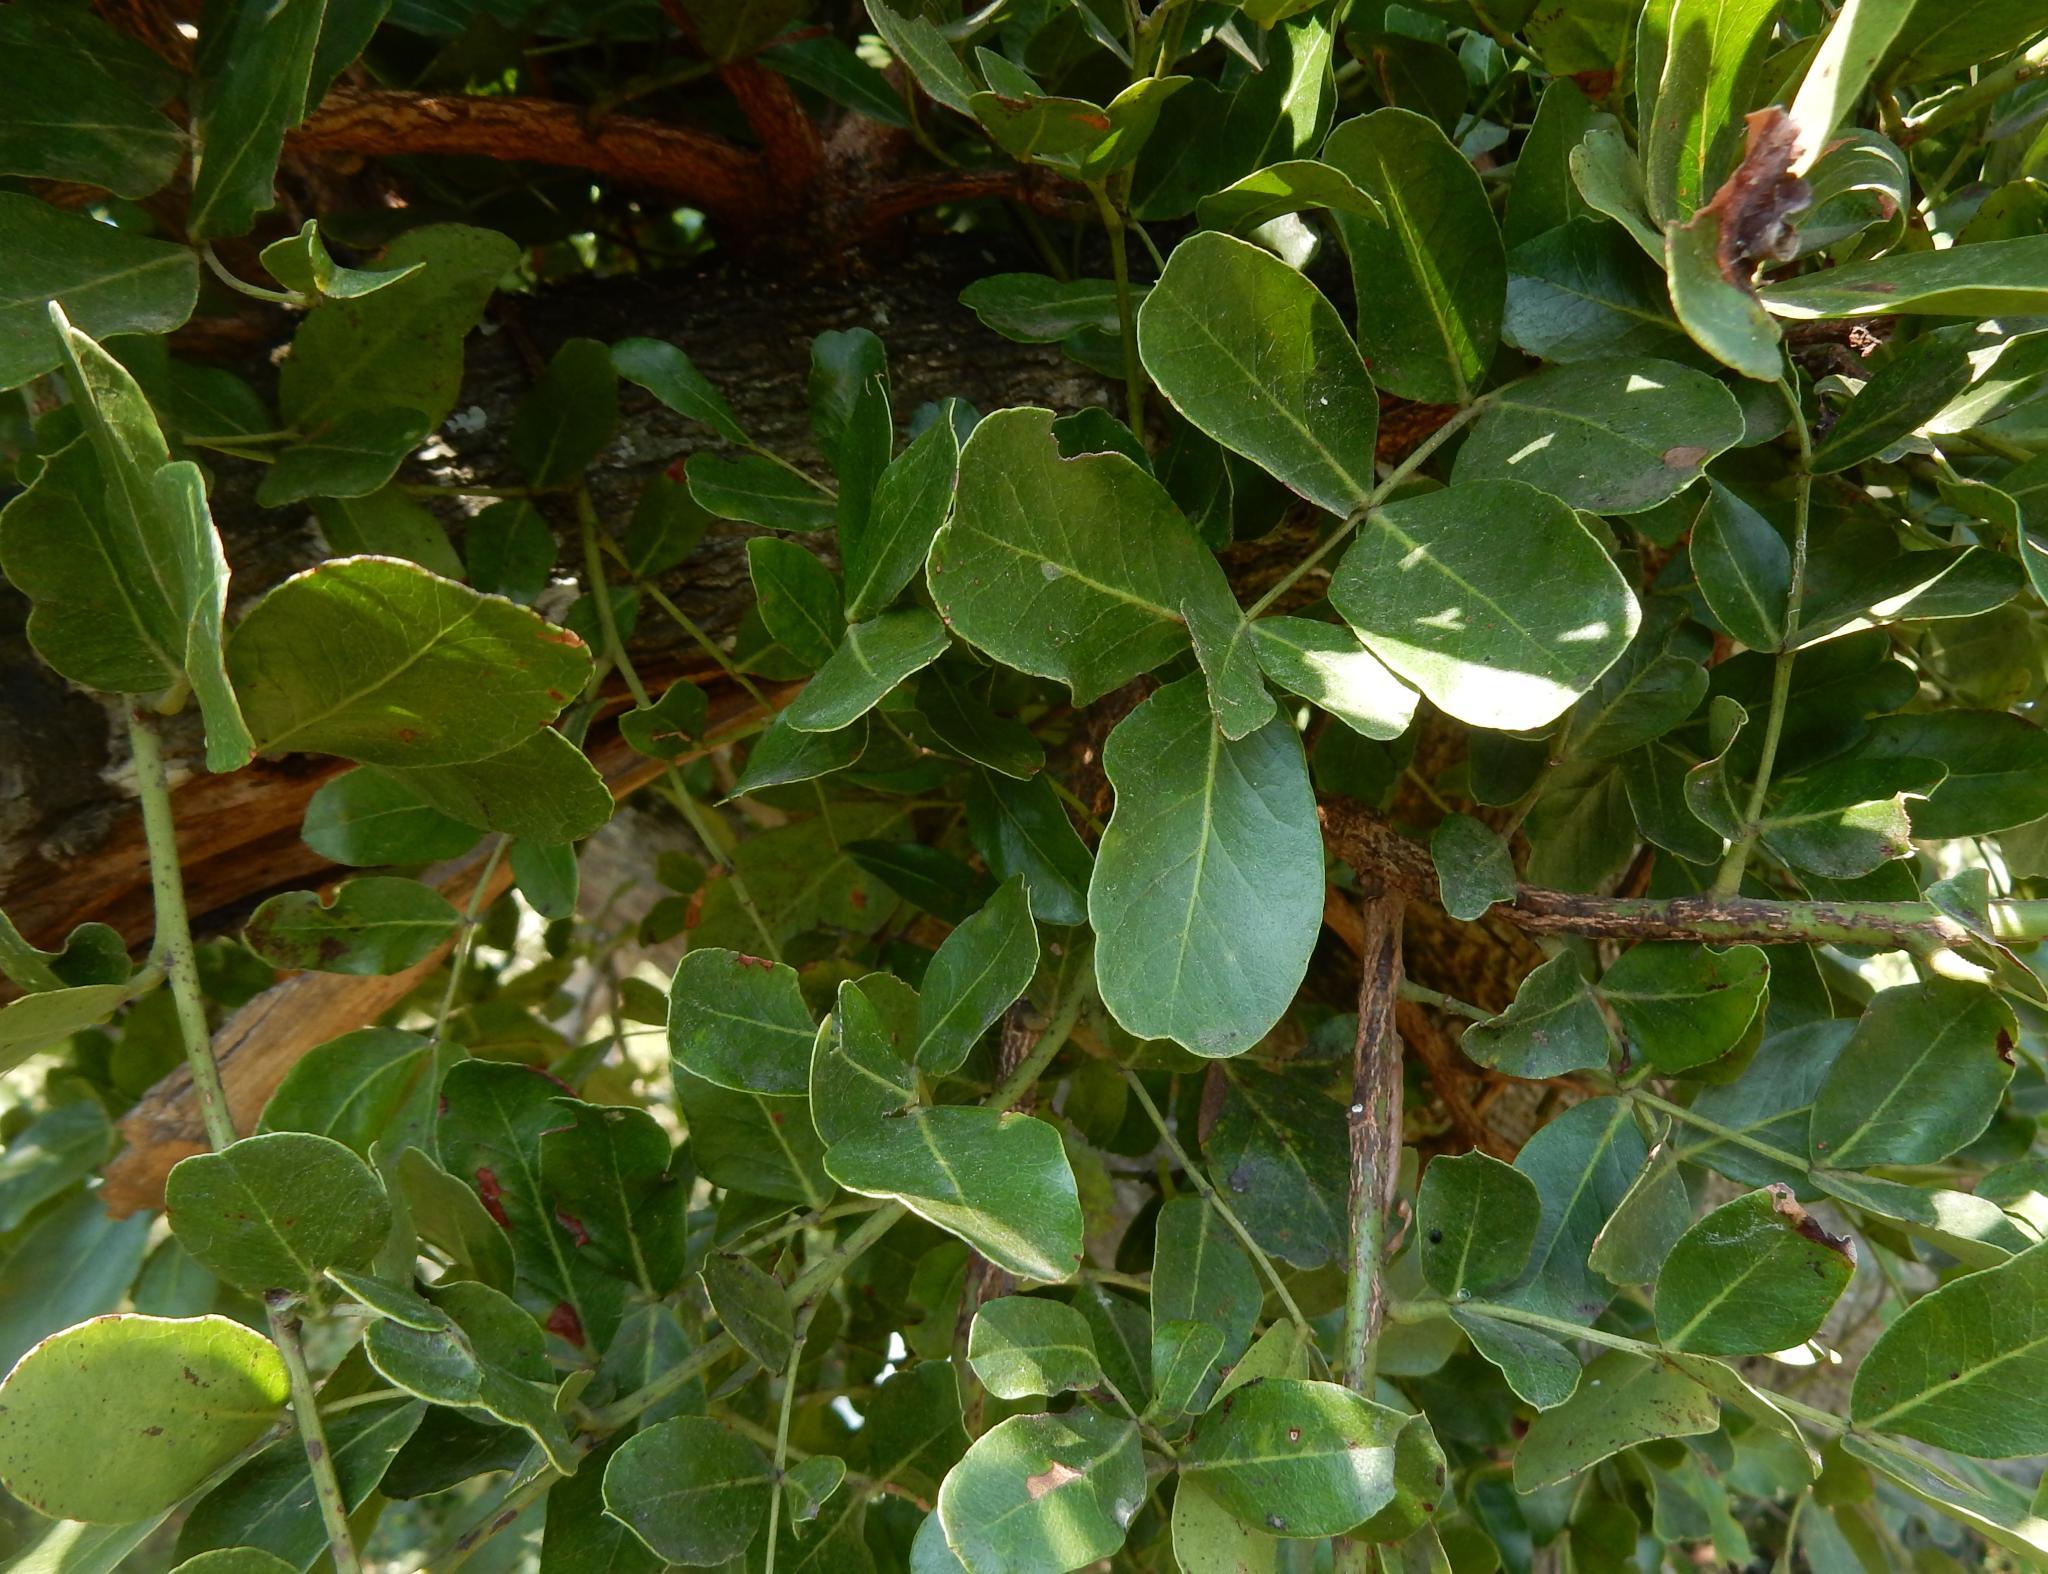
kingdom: Plantae
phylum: Tracheophyta
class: Magnoliopsida
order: Fabales
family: Fabaceae
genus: Schotia
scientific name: Schotia latifolia
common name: Bush boer-bean
